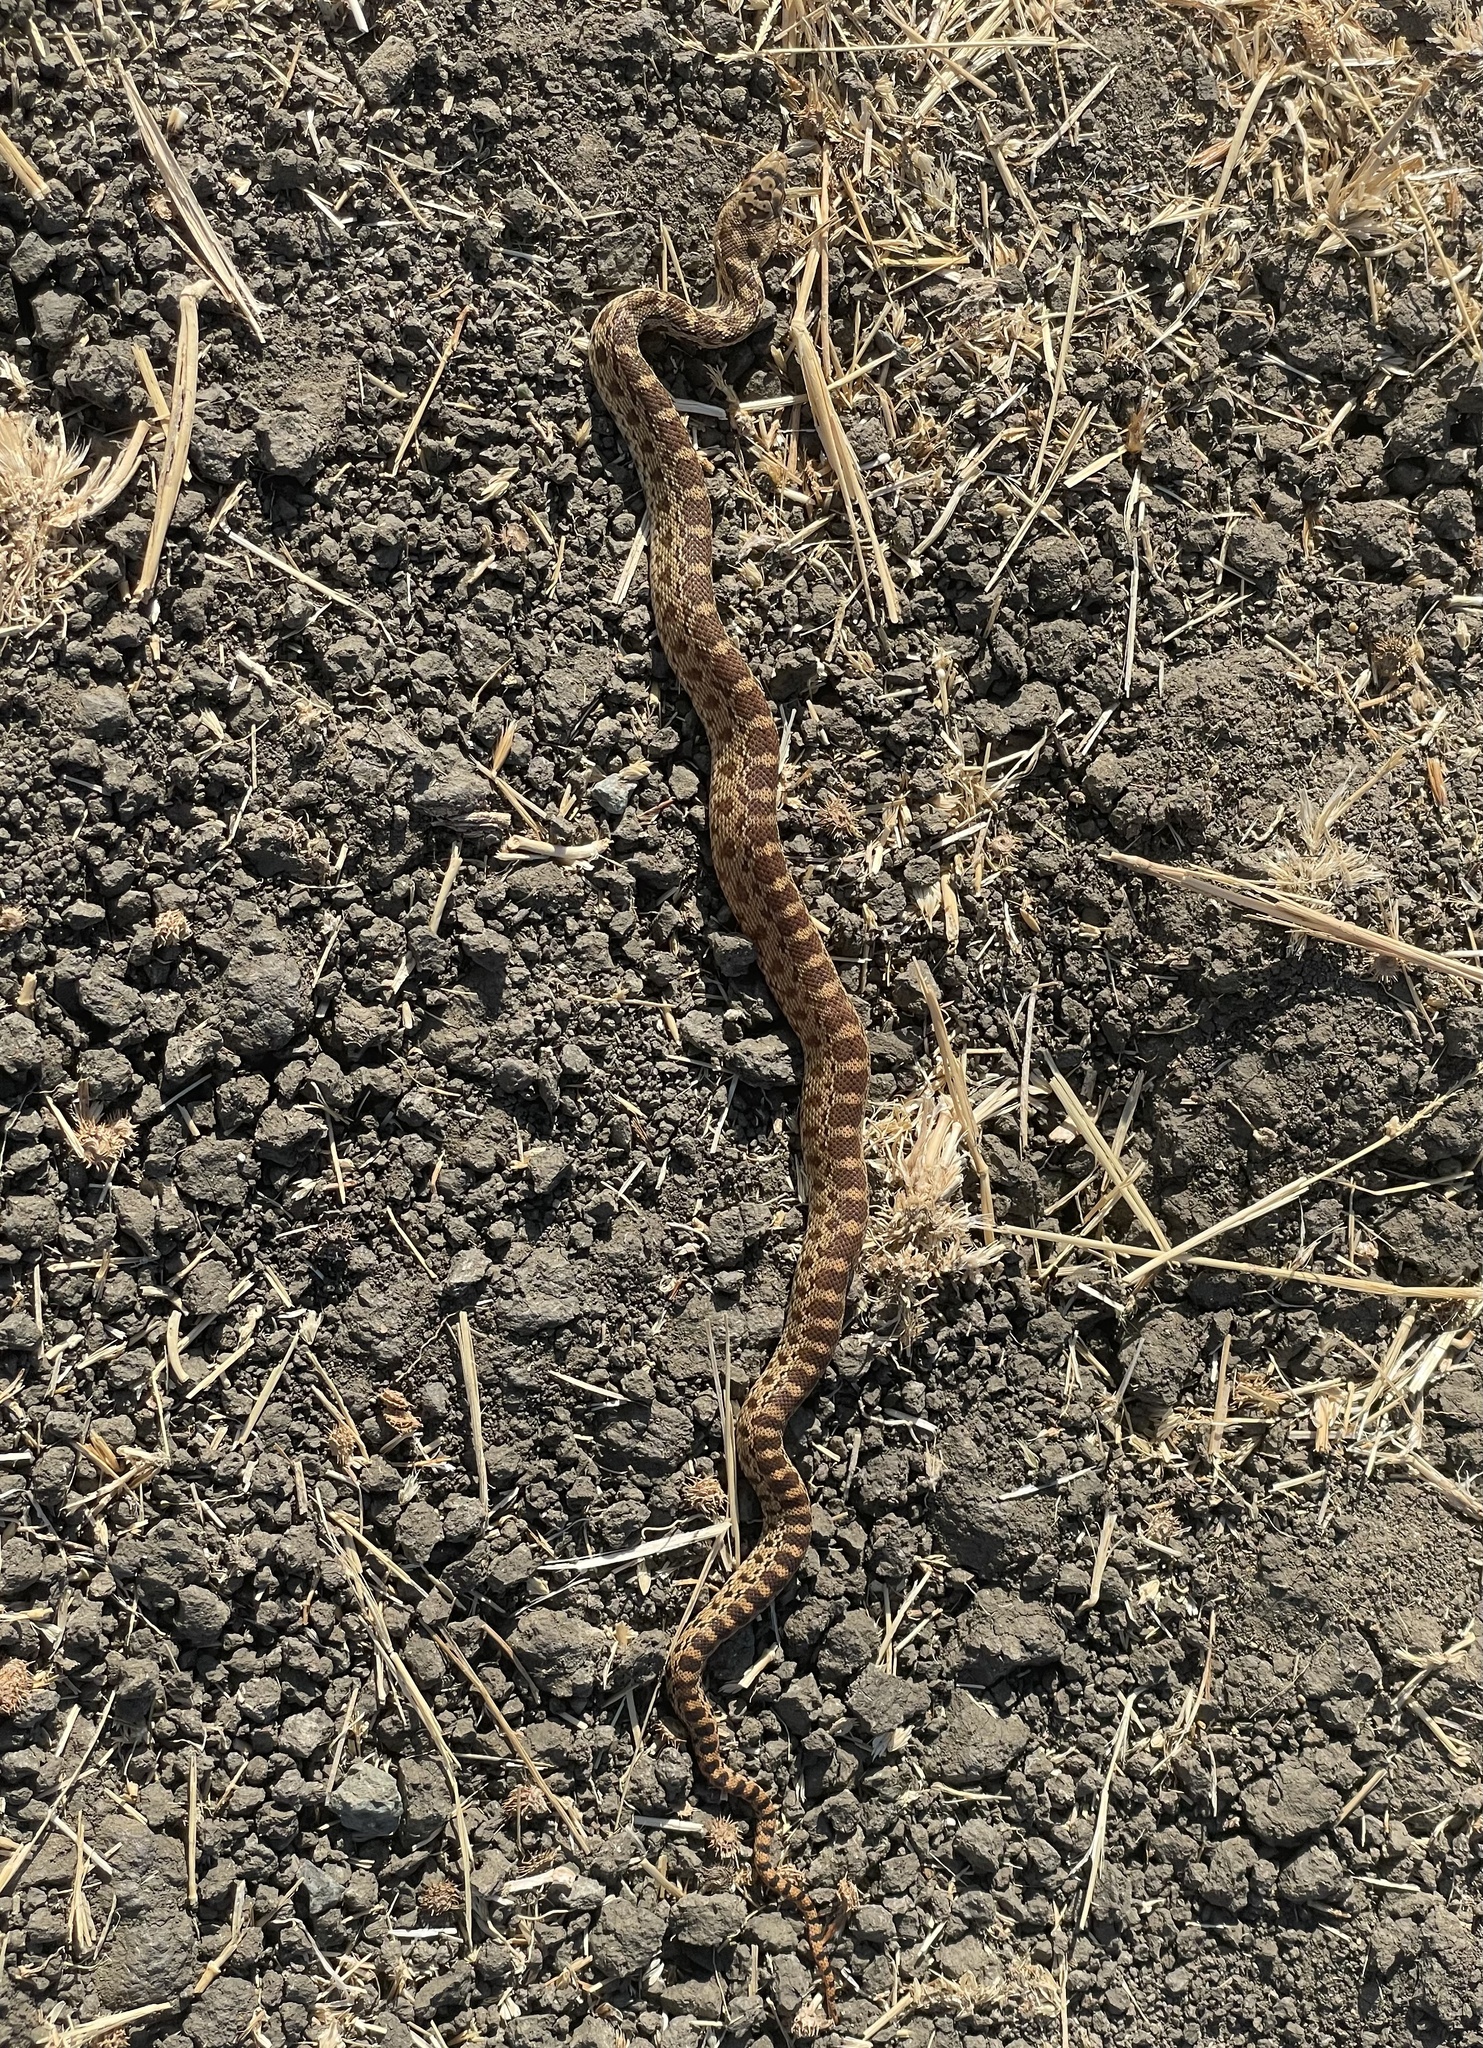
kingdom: Animalia
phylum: Chordata
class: Squamata
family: Colubridae
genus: Pituophis
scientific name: Pituophis catenifer
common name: Gopher snake
